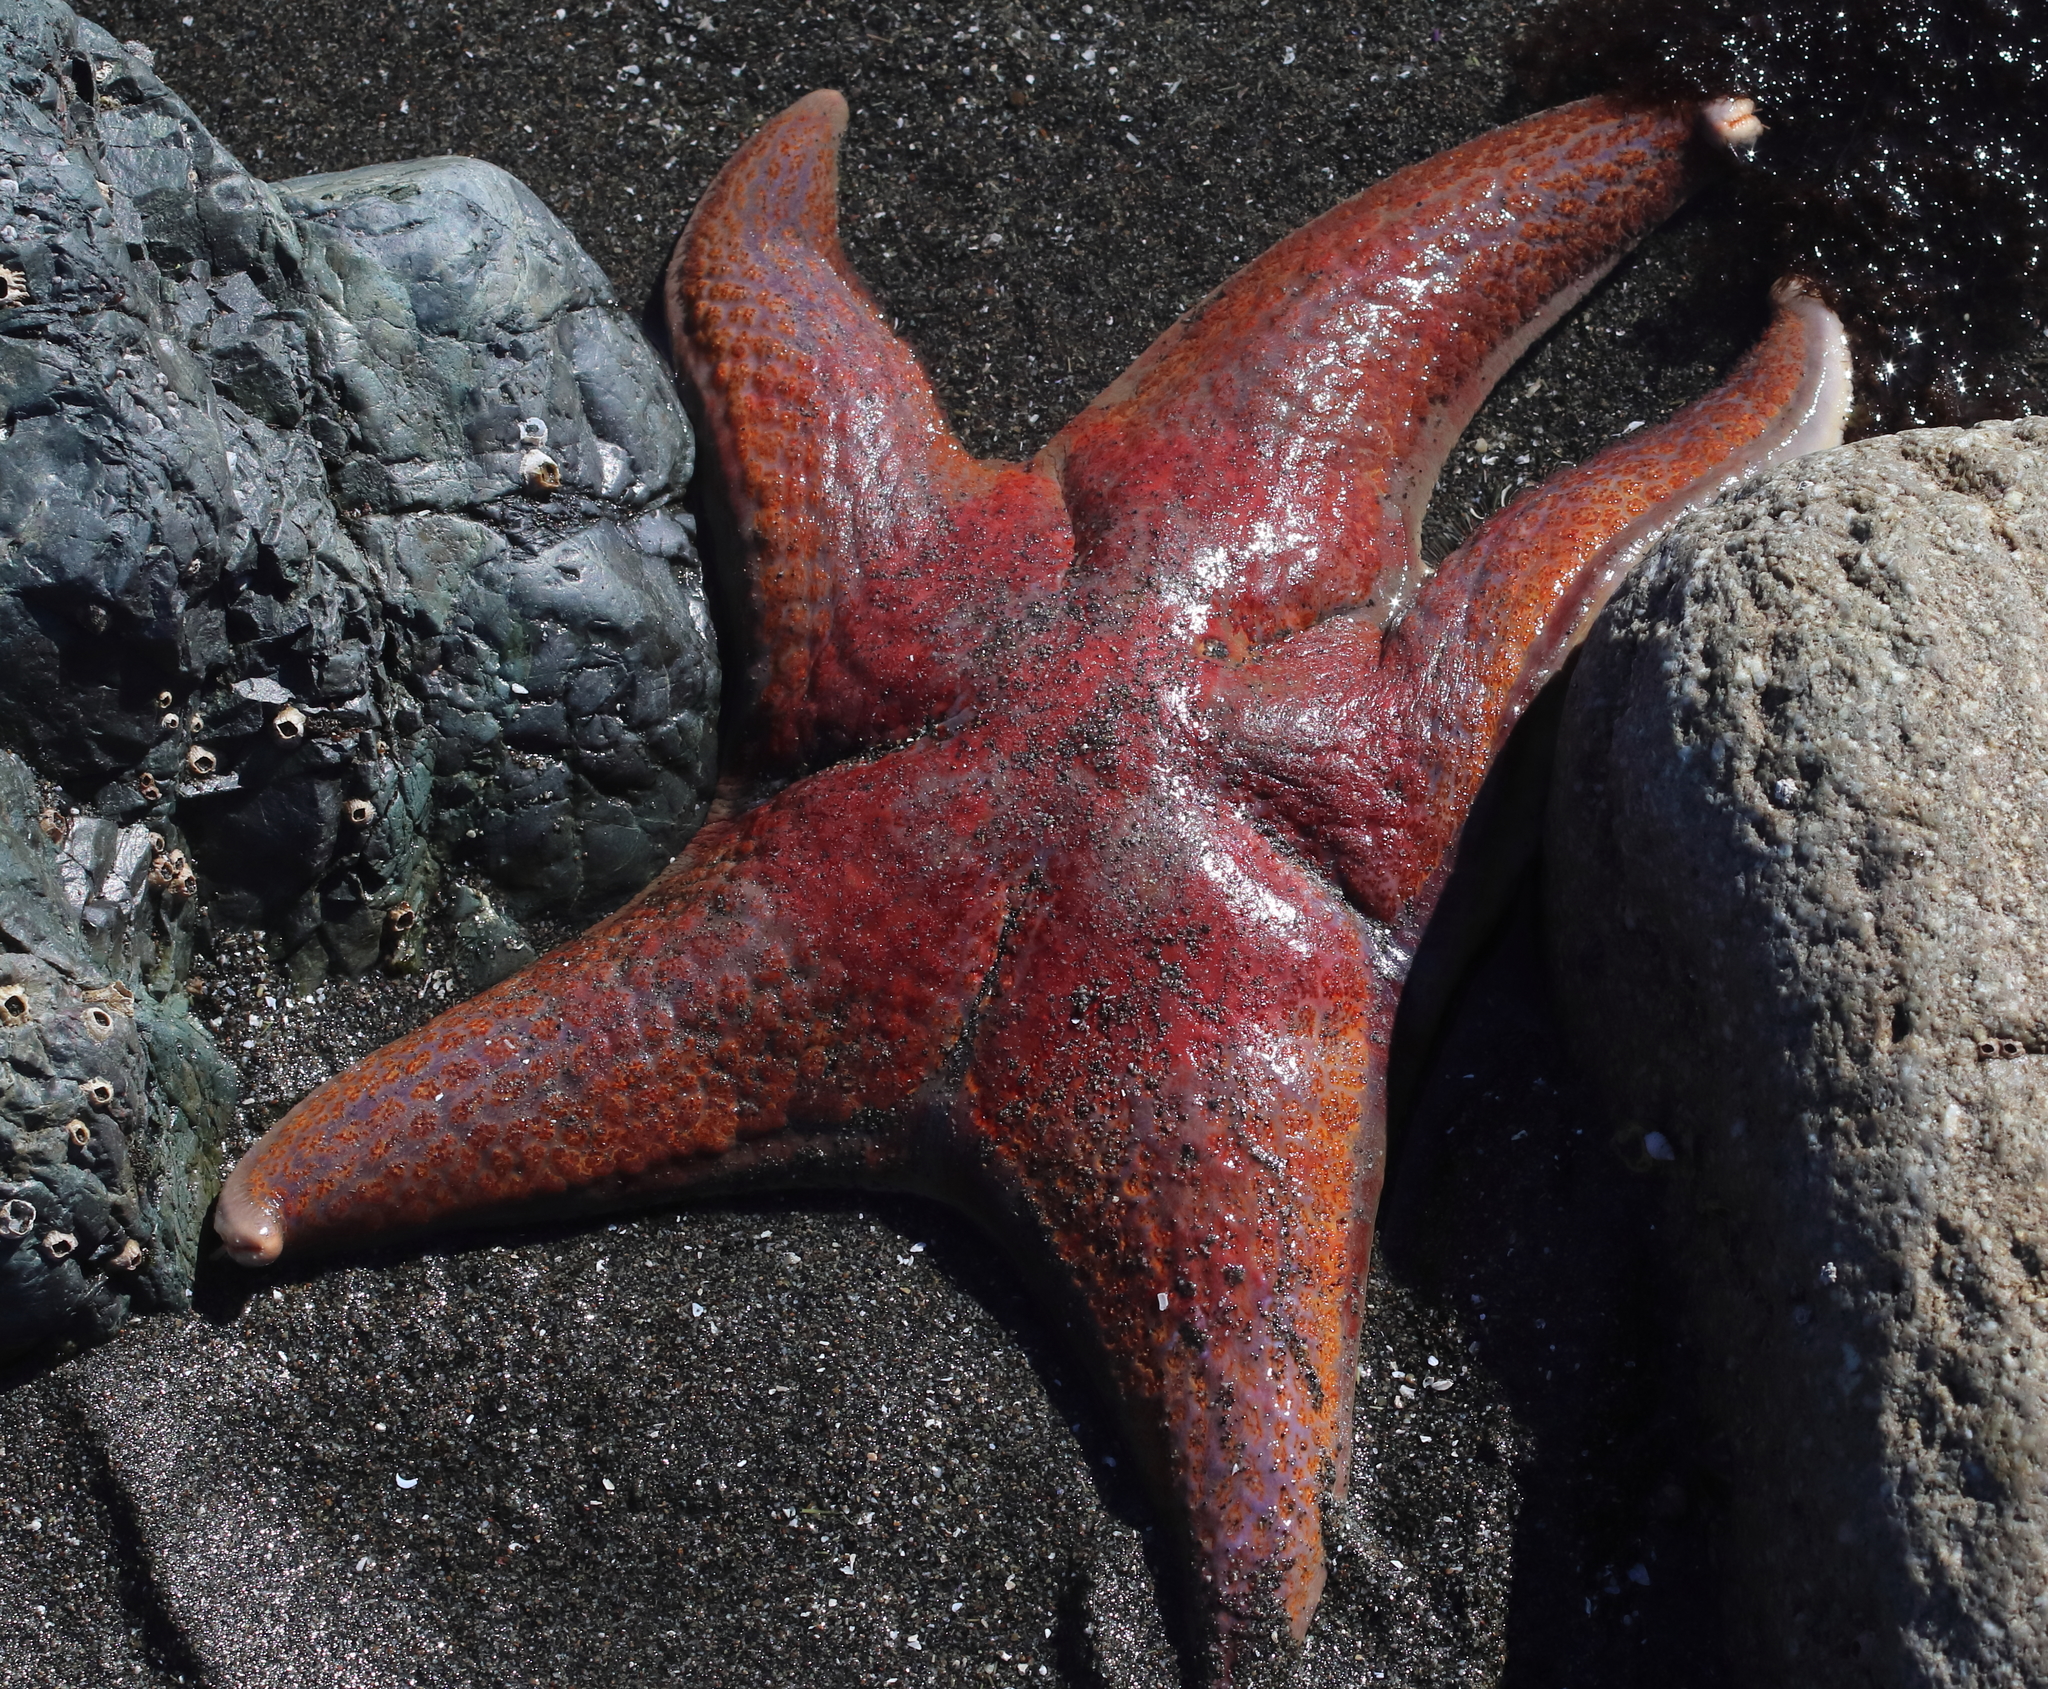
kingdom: Animalia
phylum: Echinodermata
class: Asteroidea
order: Valvatida
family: Asteropseidae
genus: Dermasterias
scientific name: Dermasterias imbricata
